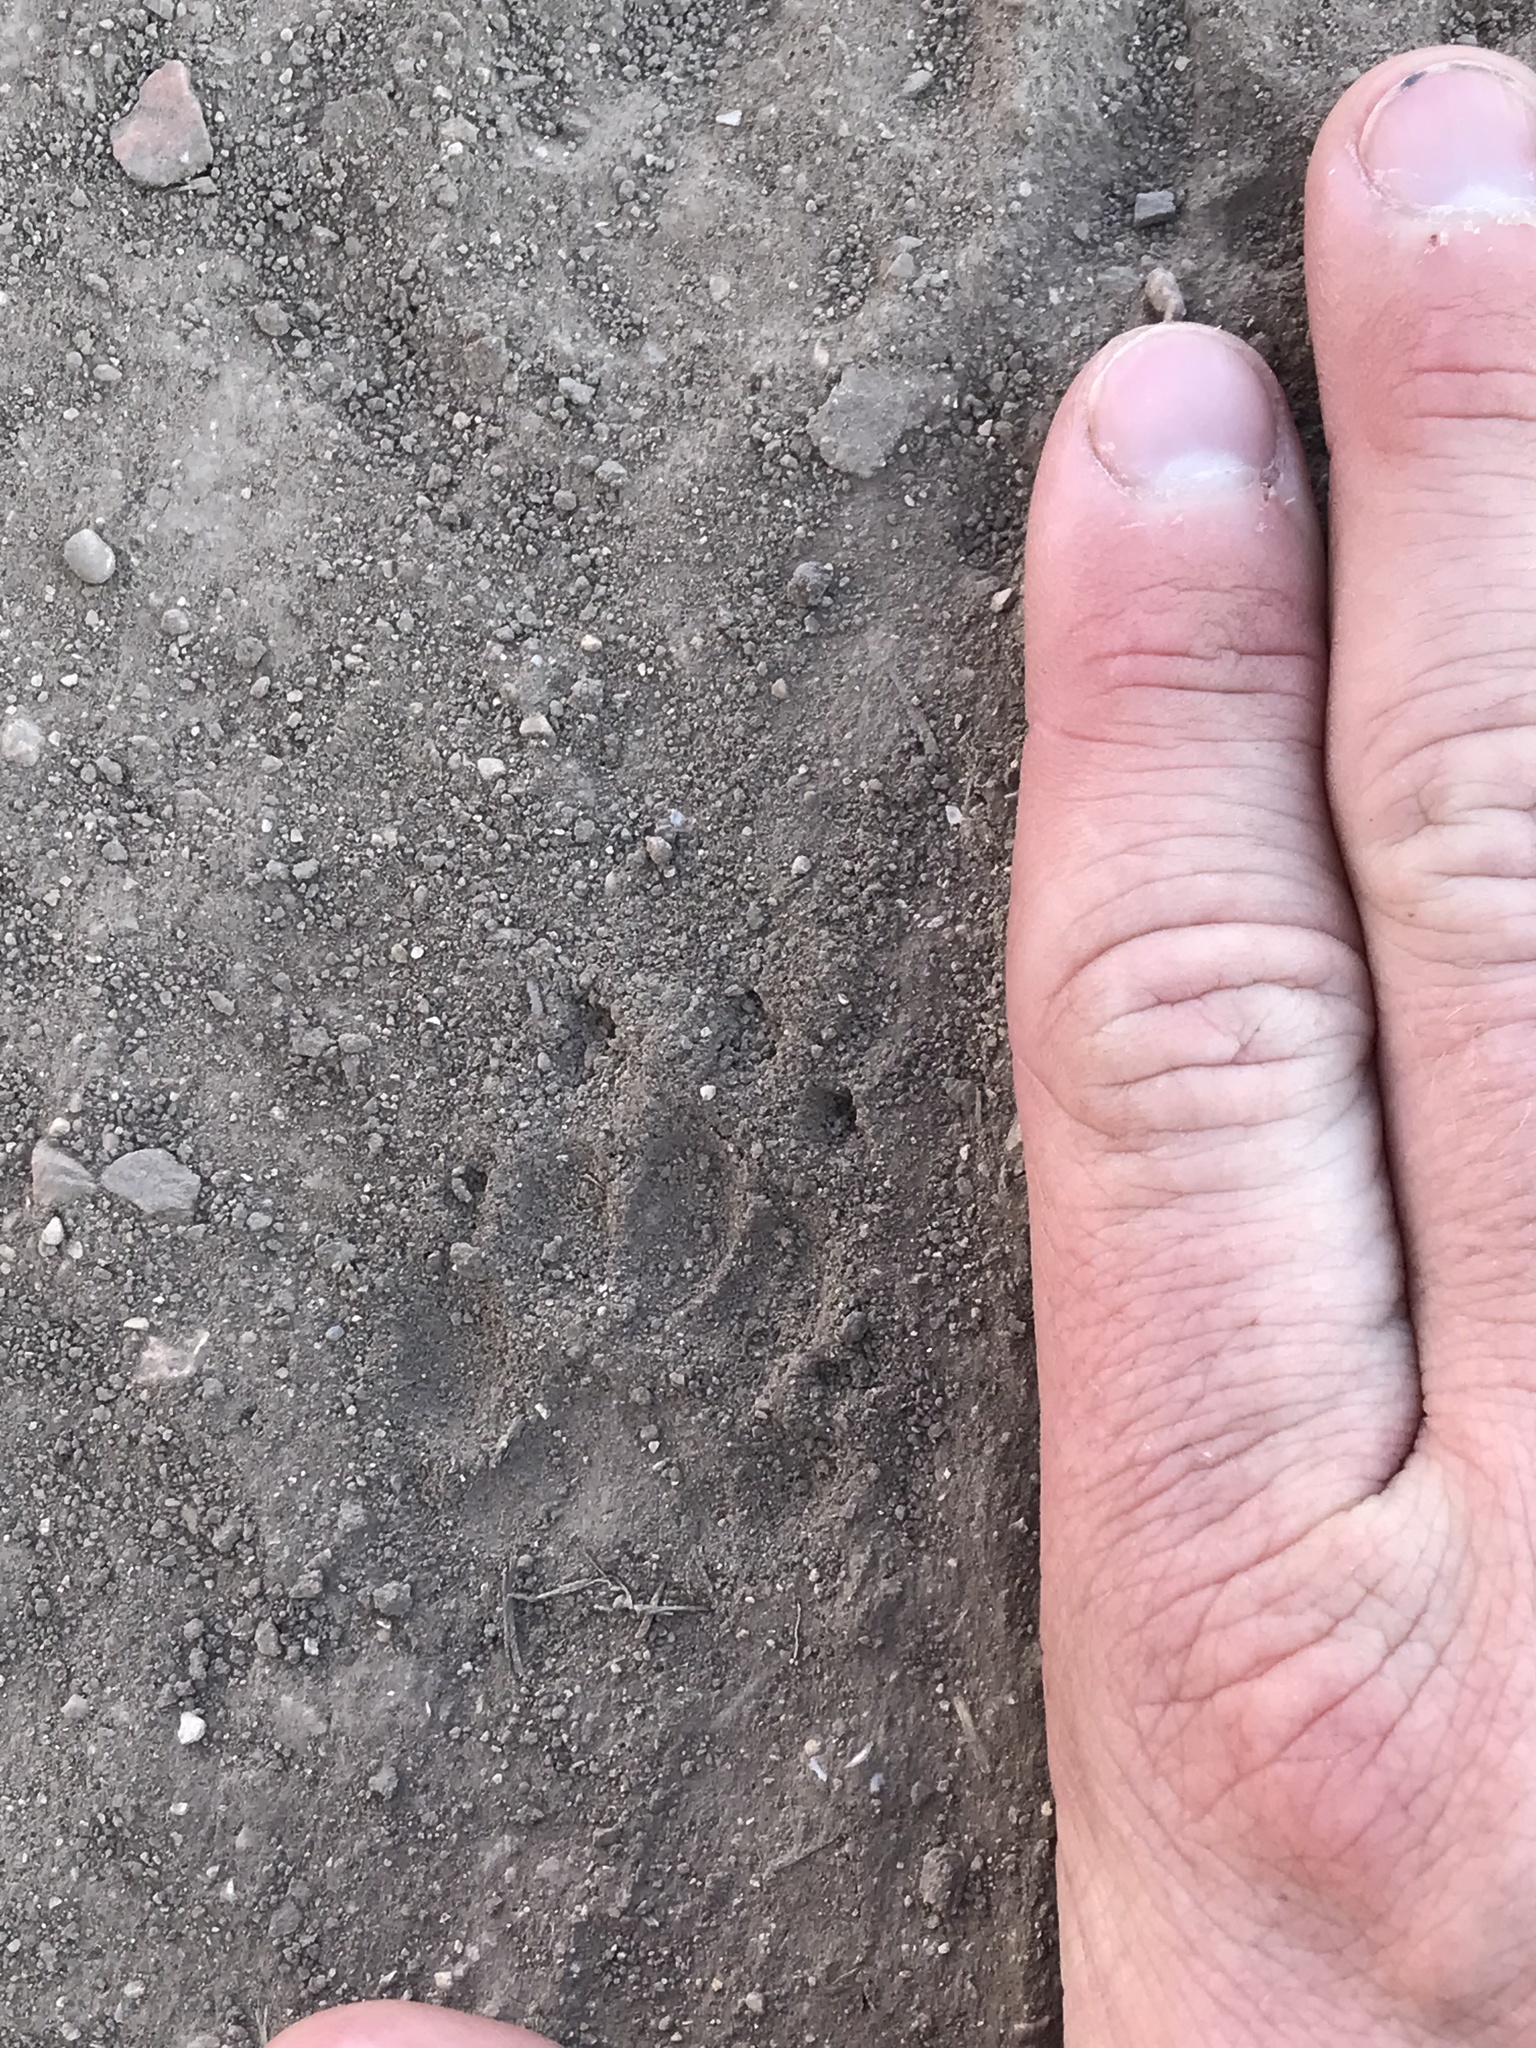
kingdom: Animalia
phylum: Chordata
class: Mammalia
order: Carnivora
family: Mephitidae
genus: Mephitis
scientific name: Mephitis mephitis
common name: Striped skunk
